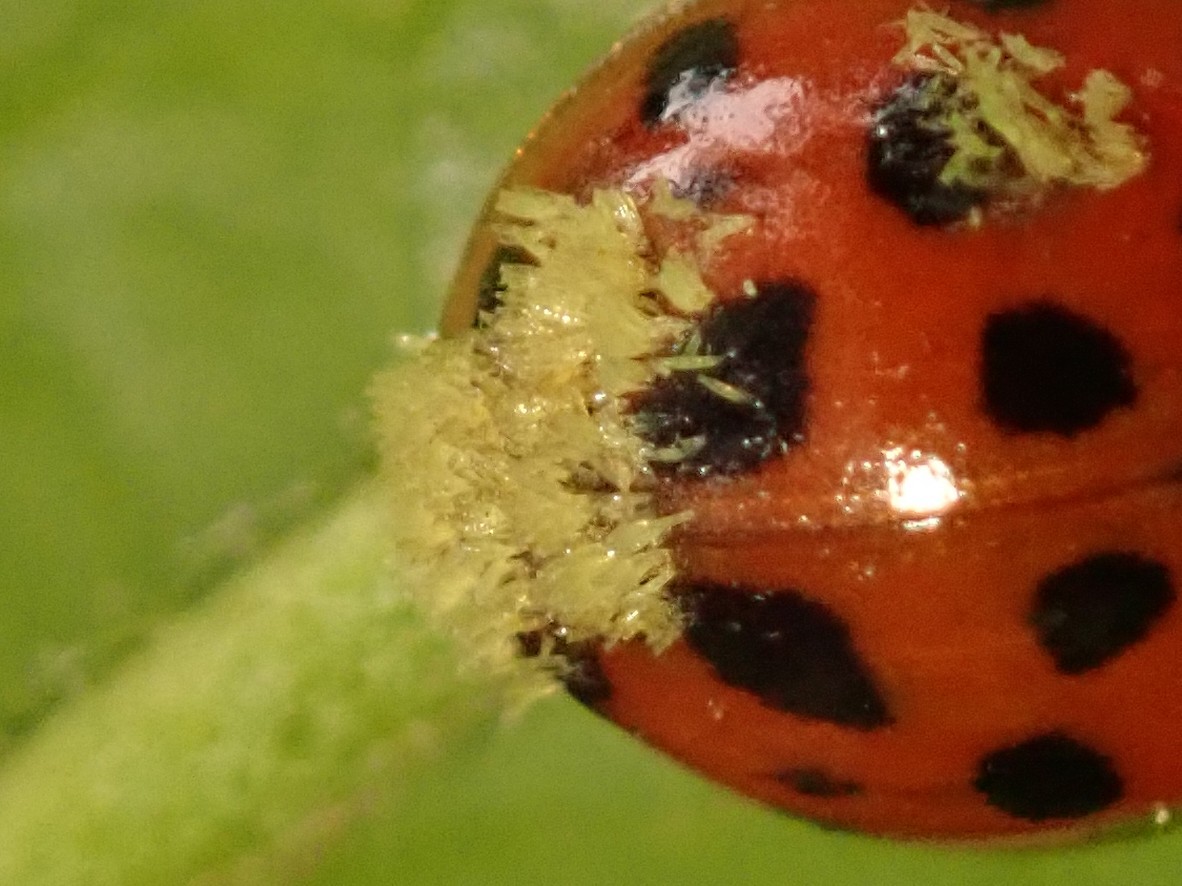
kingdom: Fungi
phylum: Ascomycota
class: Laboulbeniomycetes
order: Laboulbeniales
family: Laboulbeniaceae
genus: Hesperomyces
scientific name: Hesperomyces harmoniae
